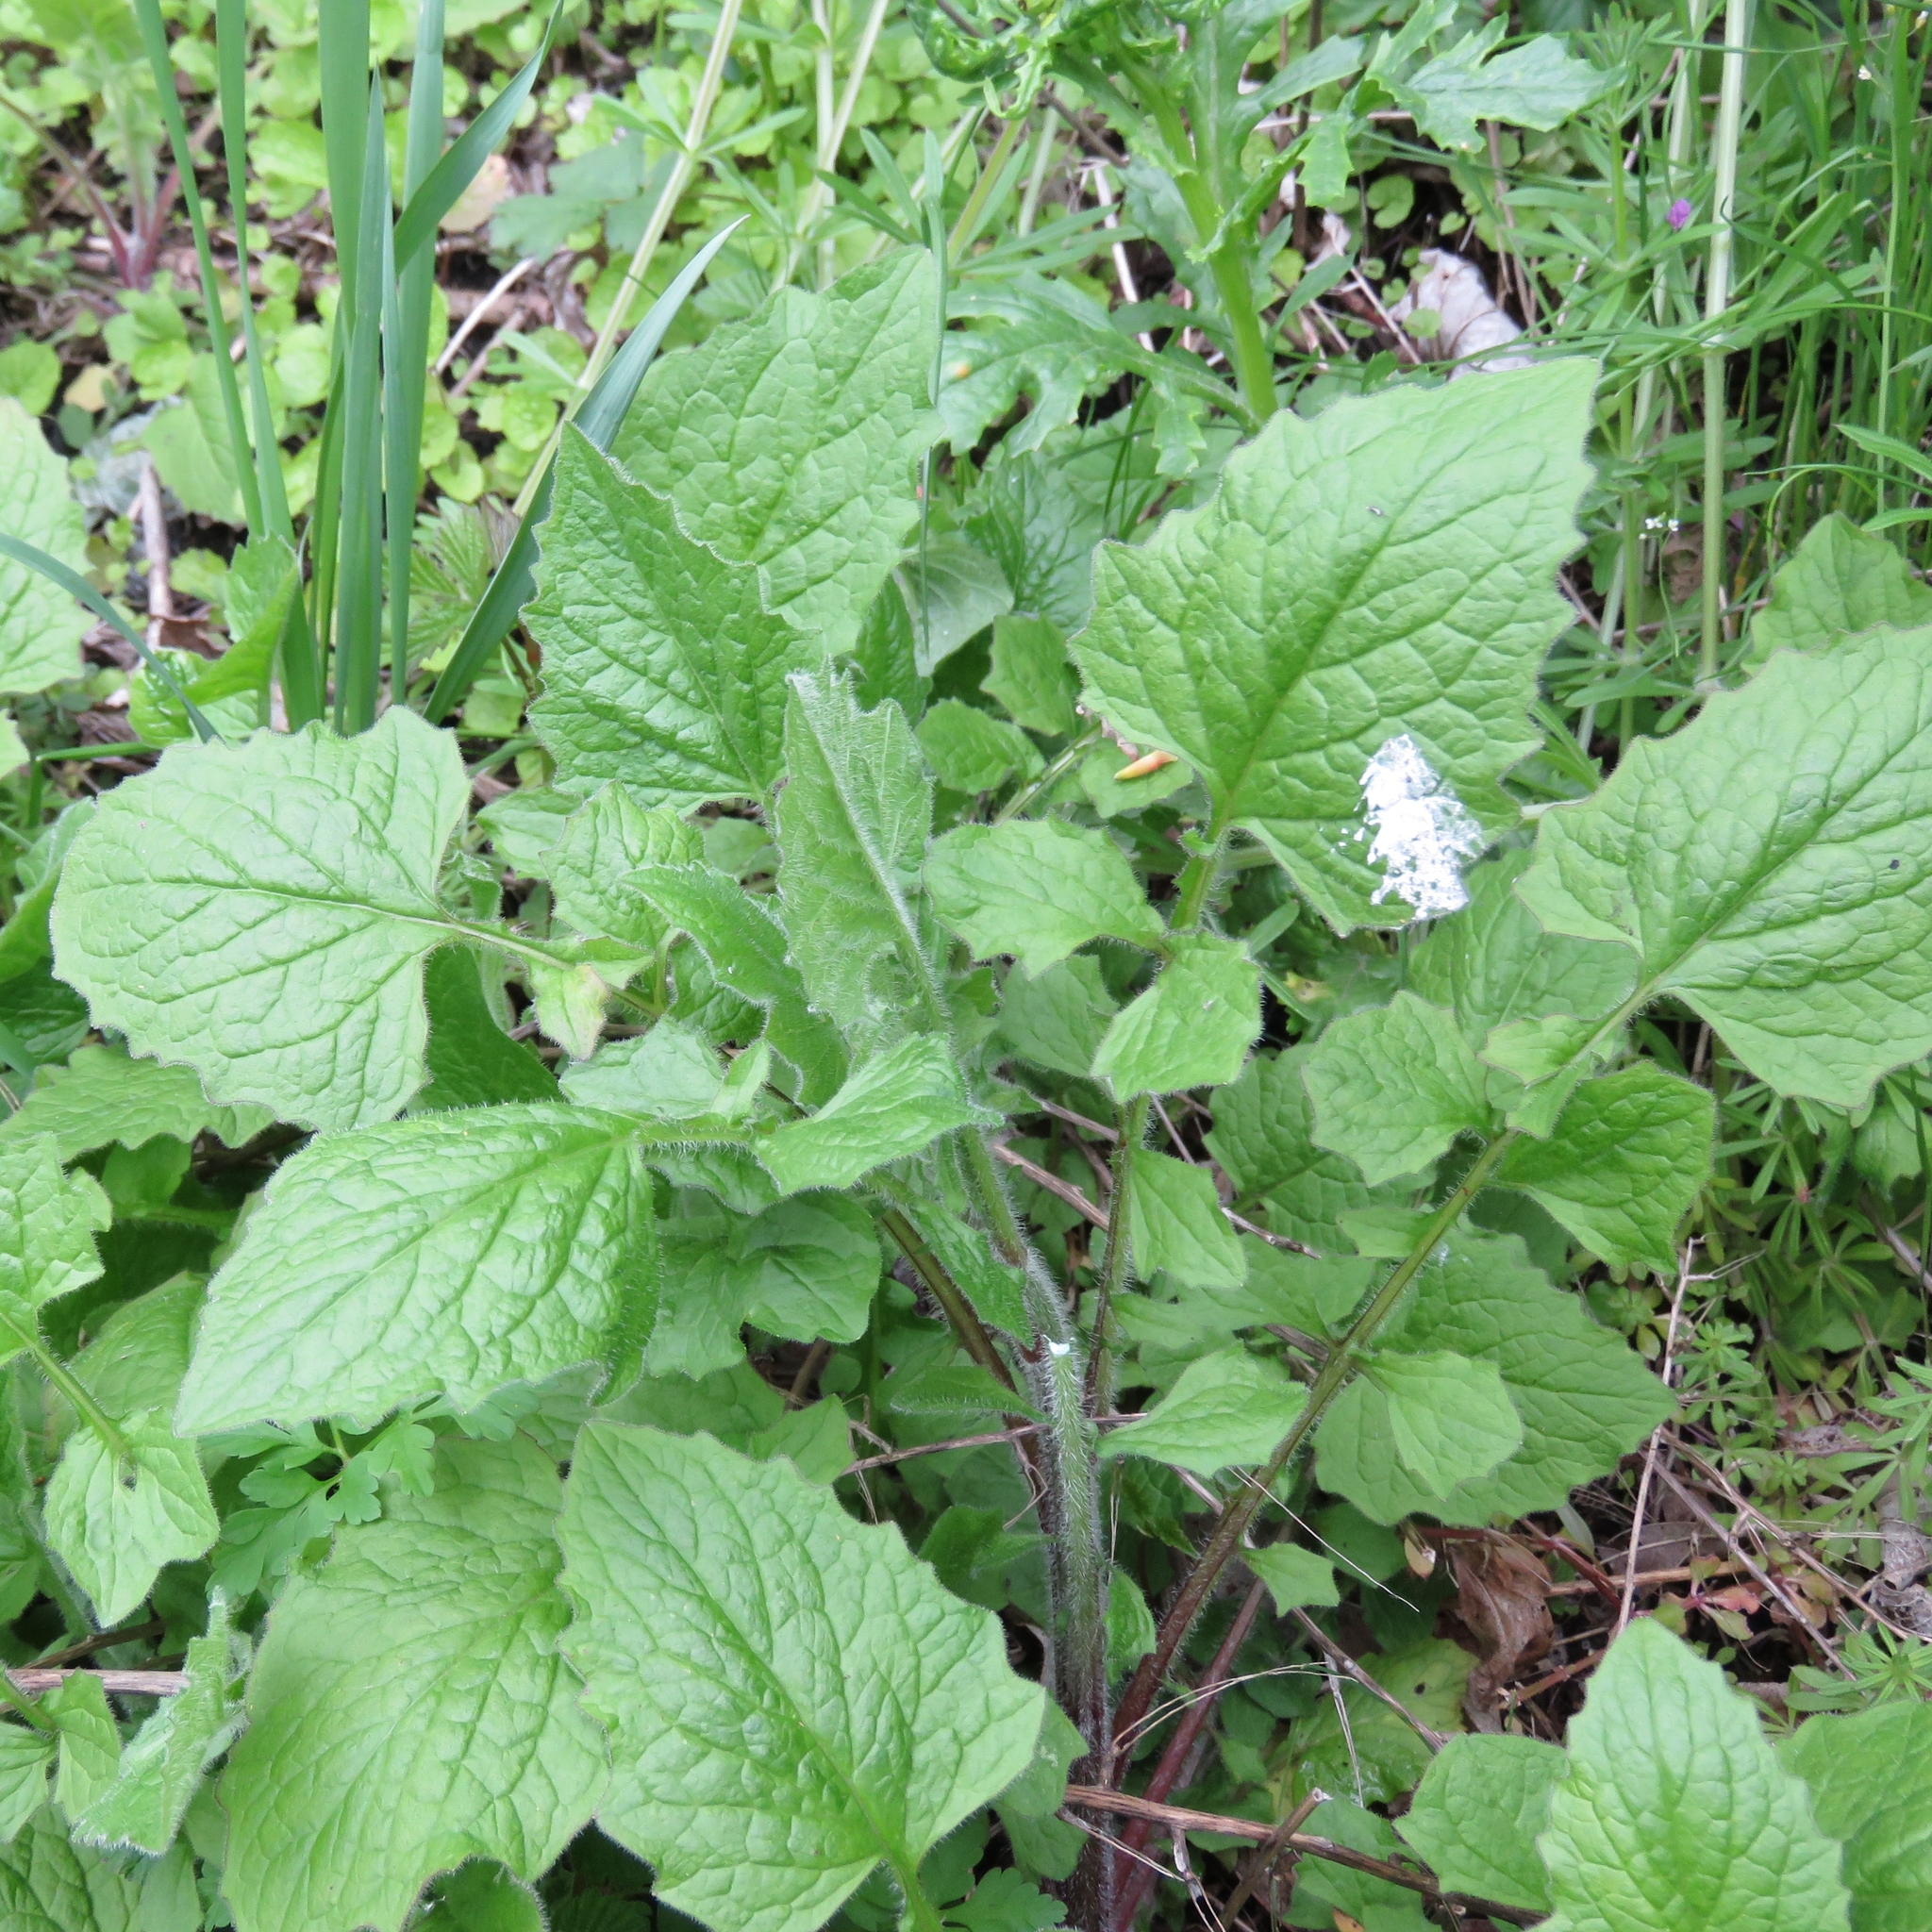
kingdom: Plantae
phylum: Tracheophyta
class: Magnoliopsida
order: Asterales
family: Asteraceae
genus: Lapsana
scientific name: Lapsana communis
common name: Nipplewort
